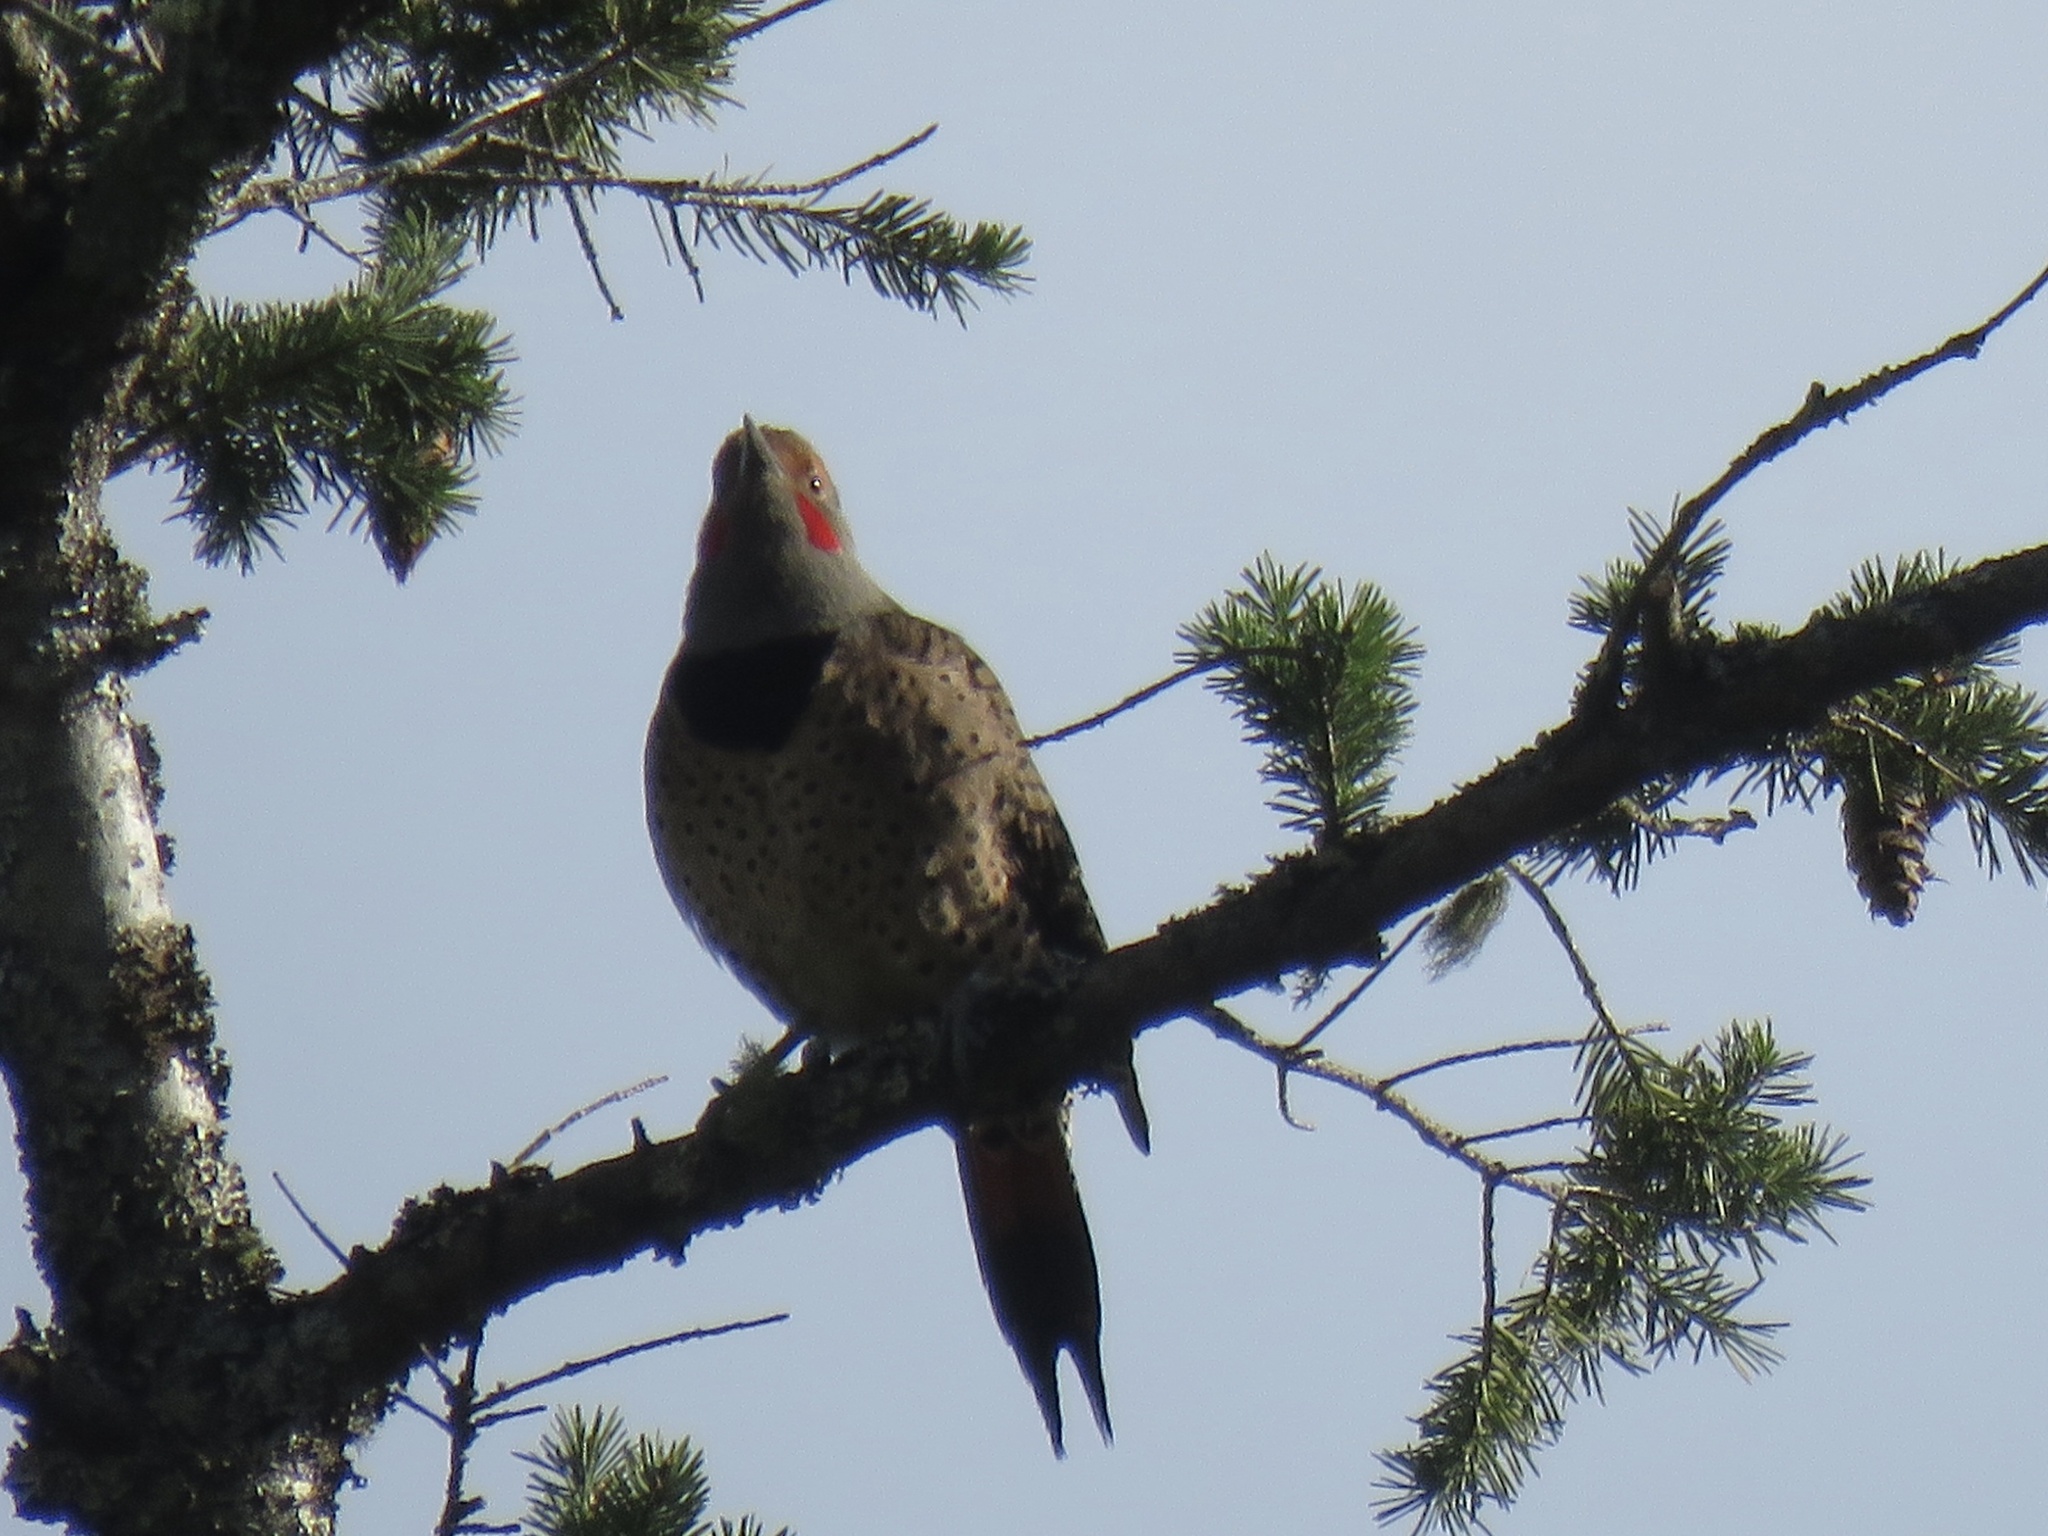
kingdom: Animalia
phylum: Chordata
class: Aves
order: Piciformes
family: Picidae
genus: Colaptes
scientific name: Colaptes auratus
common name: Northern flicker
